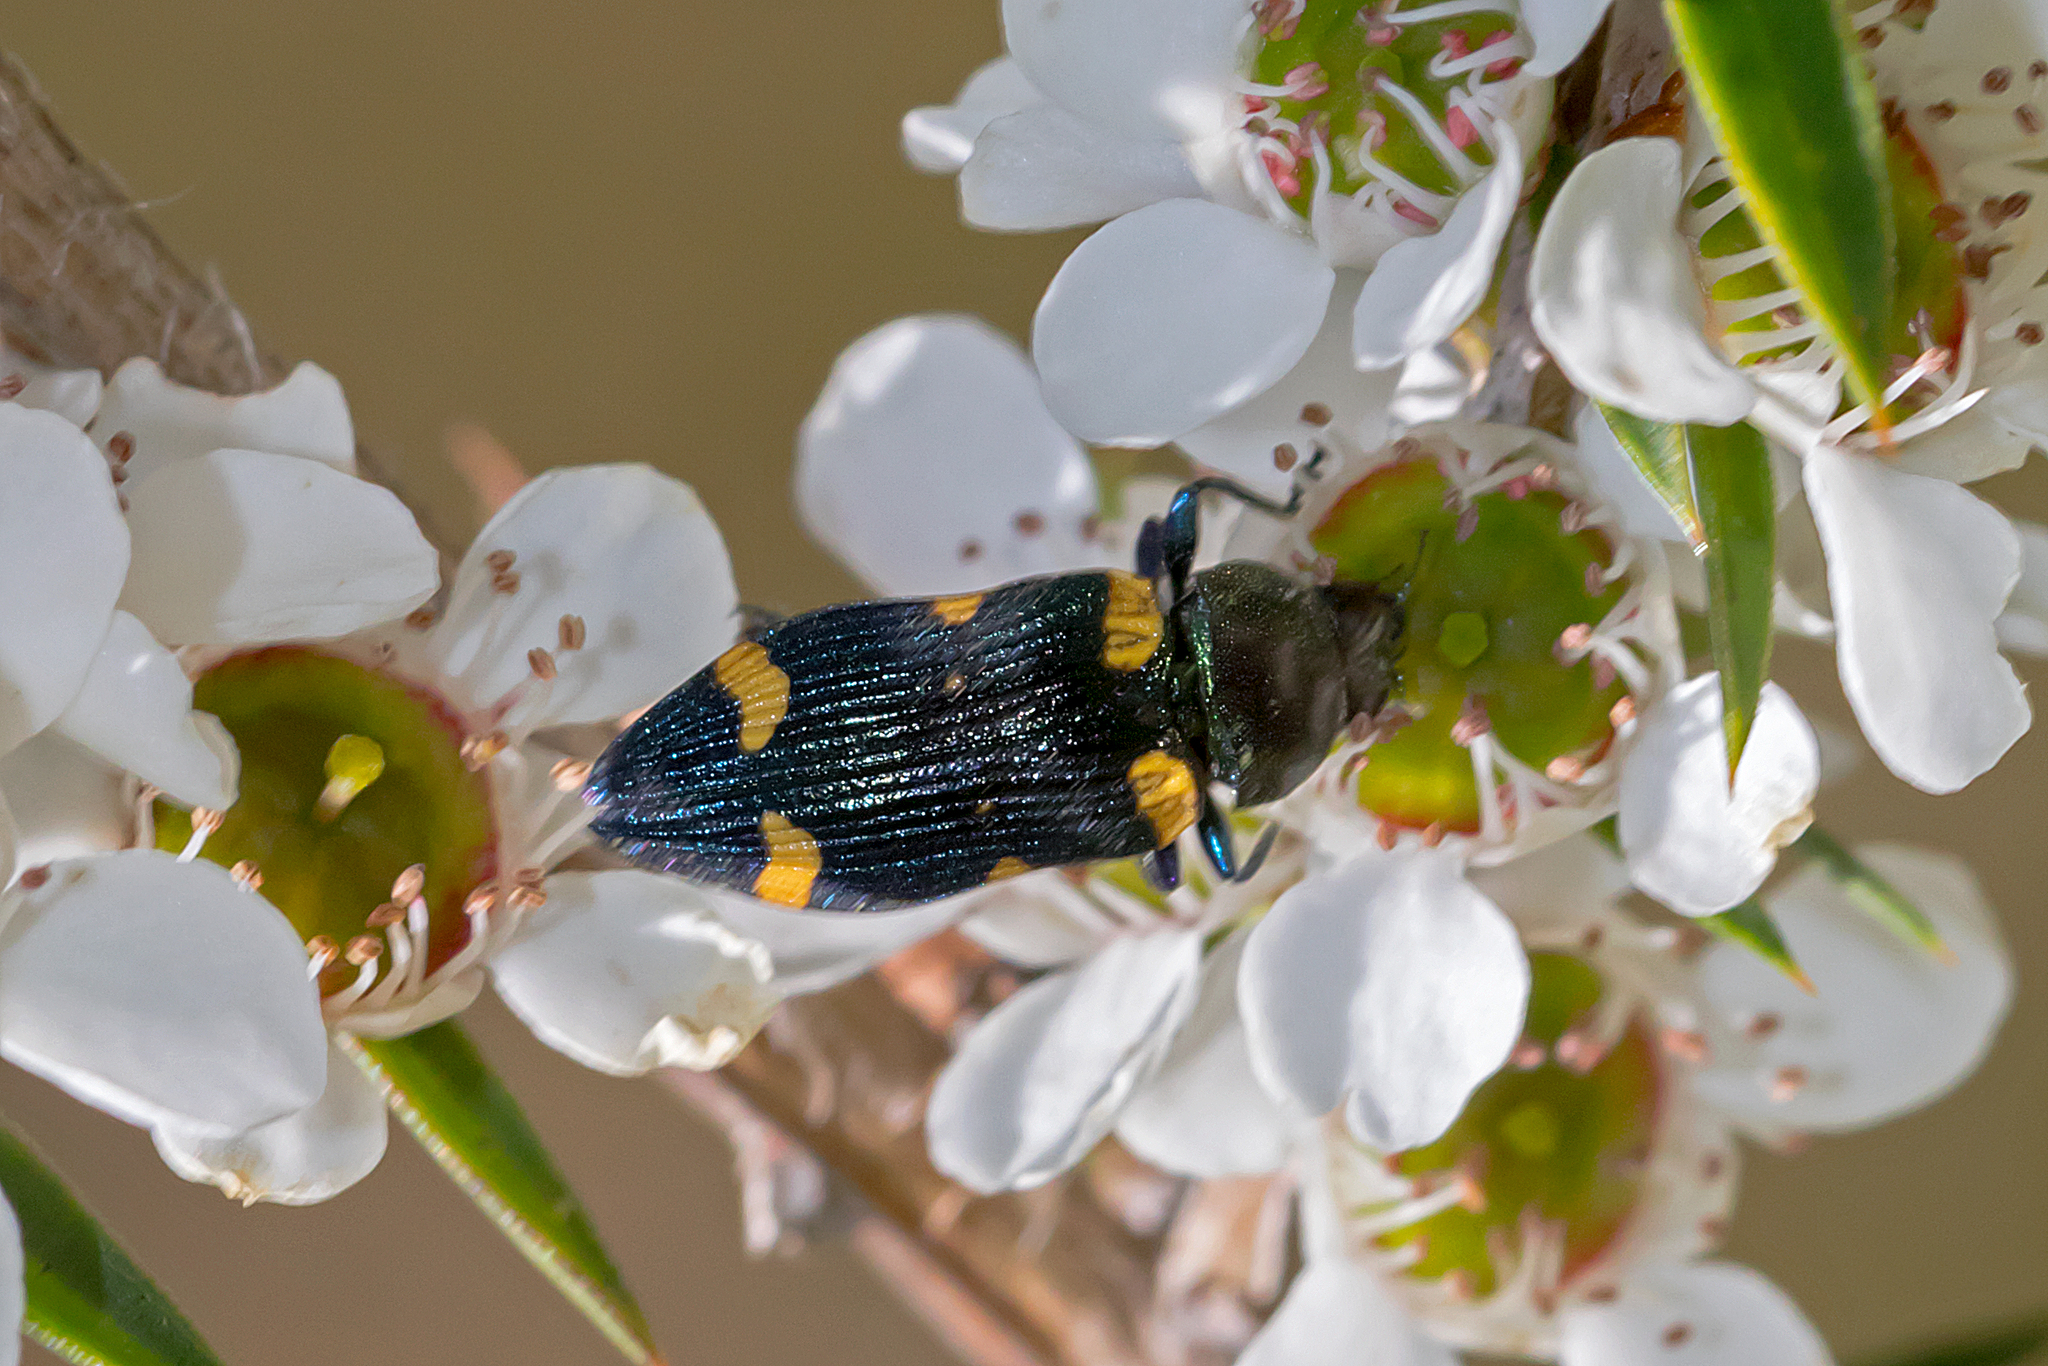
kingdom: Animalia
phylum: Arthropoda
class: Insecta
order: Coleoptera
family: Buprestidae
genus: Castiarina
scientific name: Castiarina imitator
